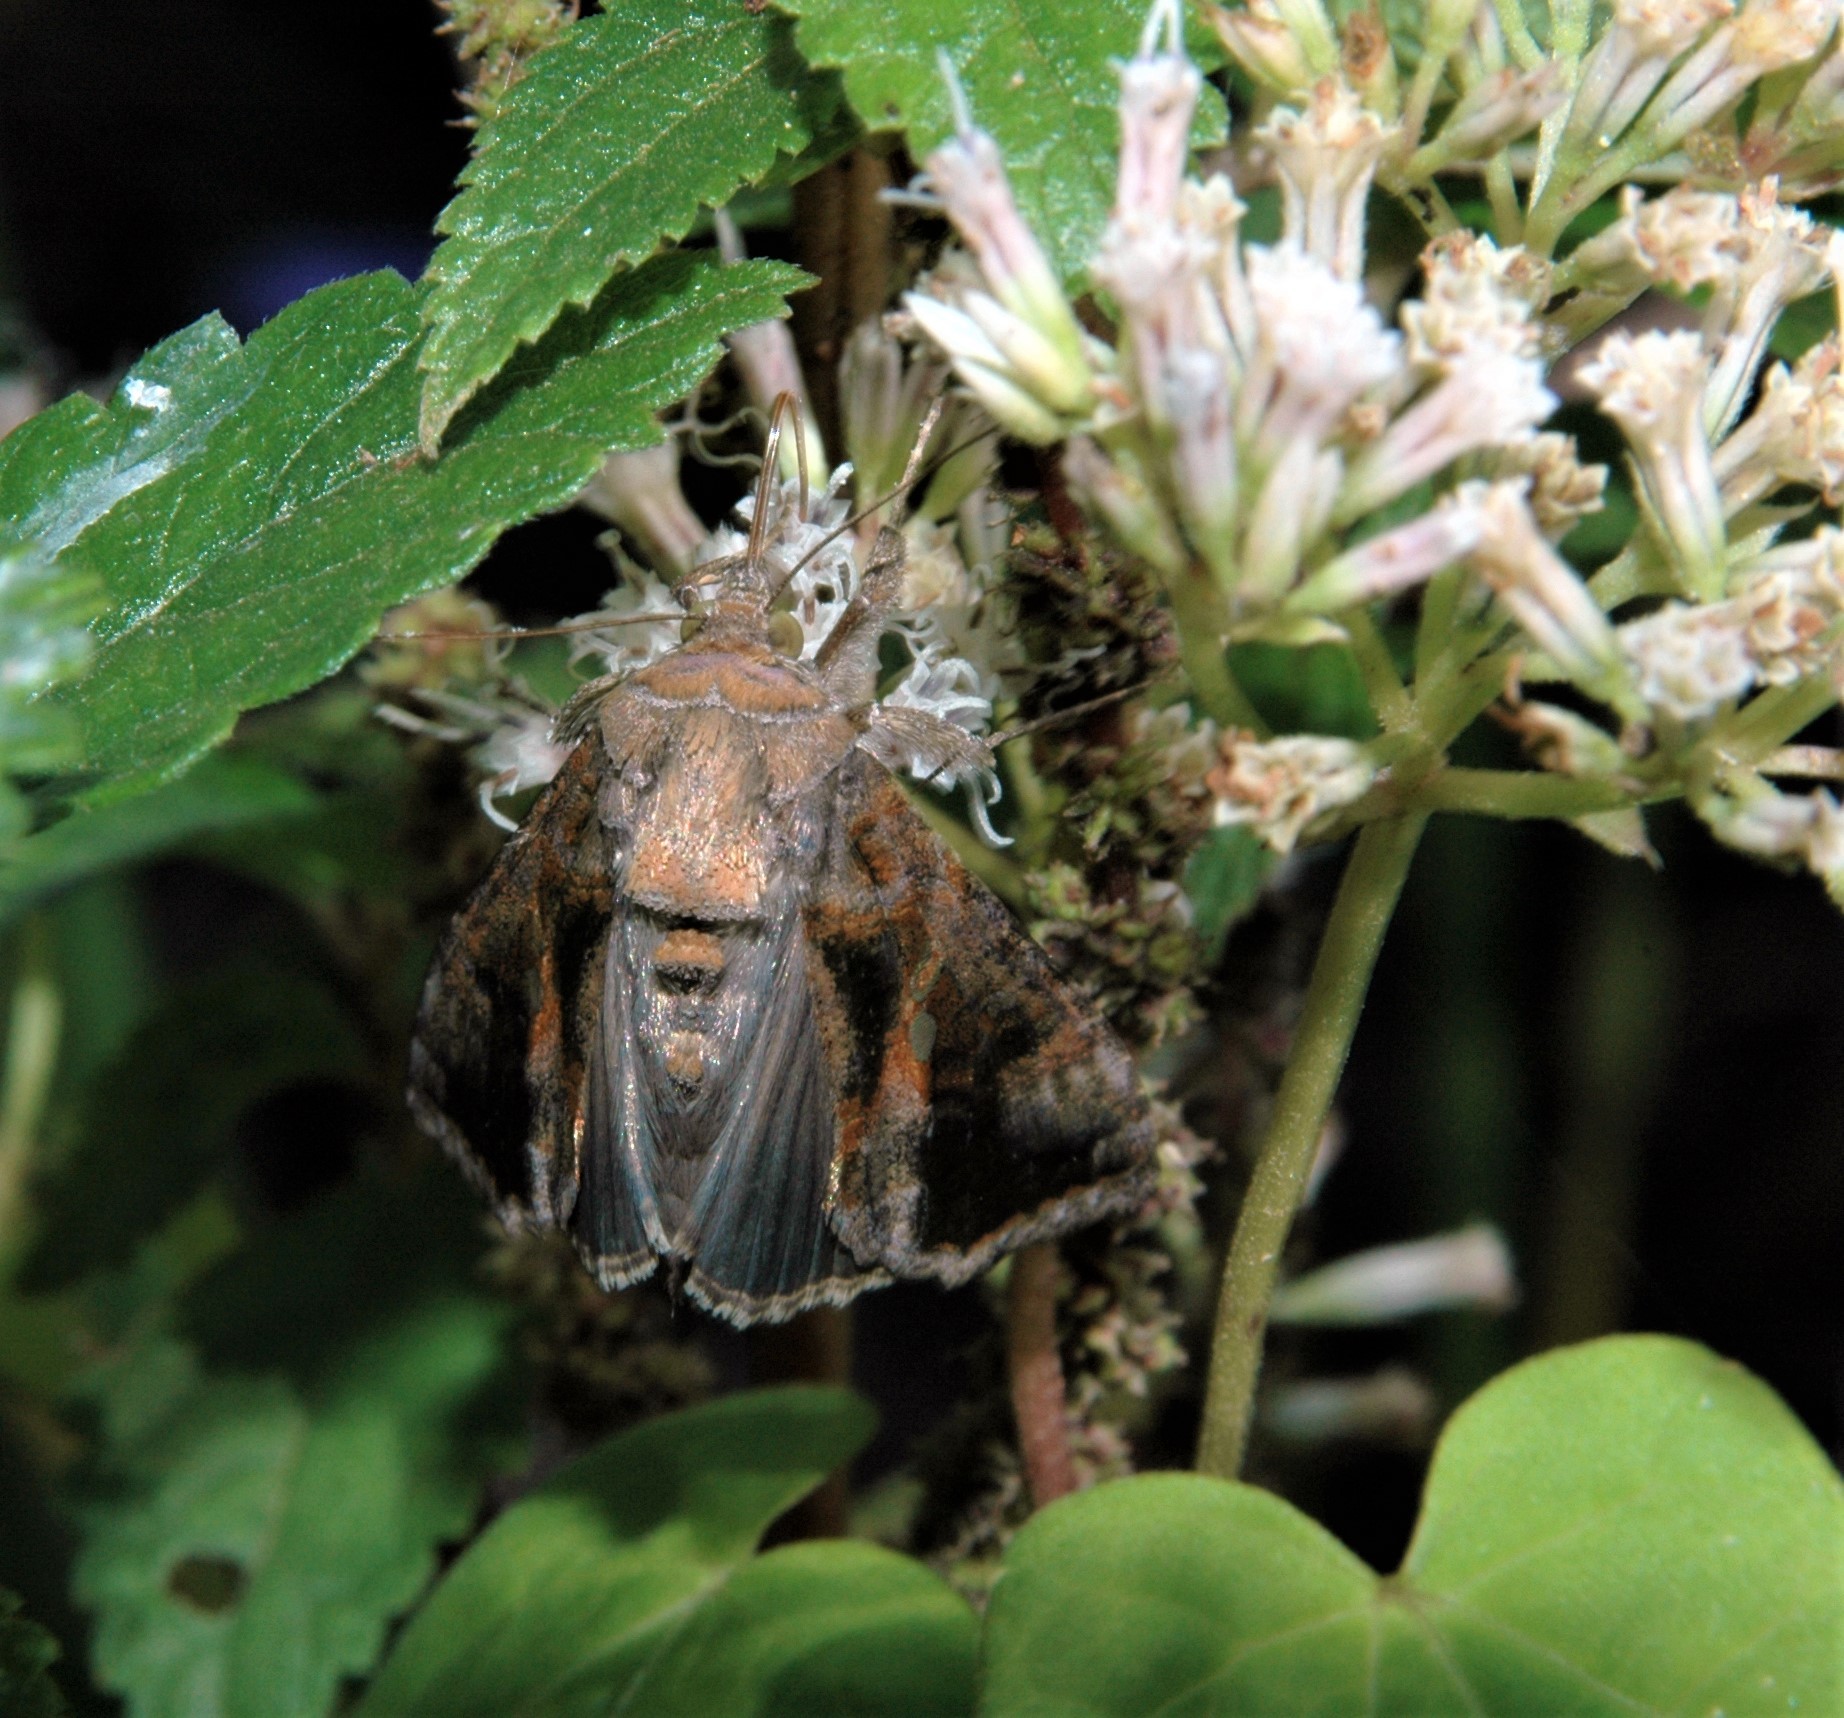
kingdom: Animalia
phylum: Arthropoda
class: Insecta
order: Lepidoptera
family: Noctuidae
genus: Chrysodeixis
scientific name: Chrysodeixis includens
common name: Cutworm moth
